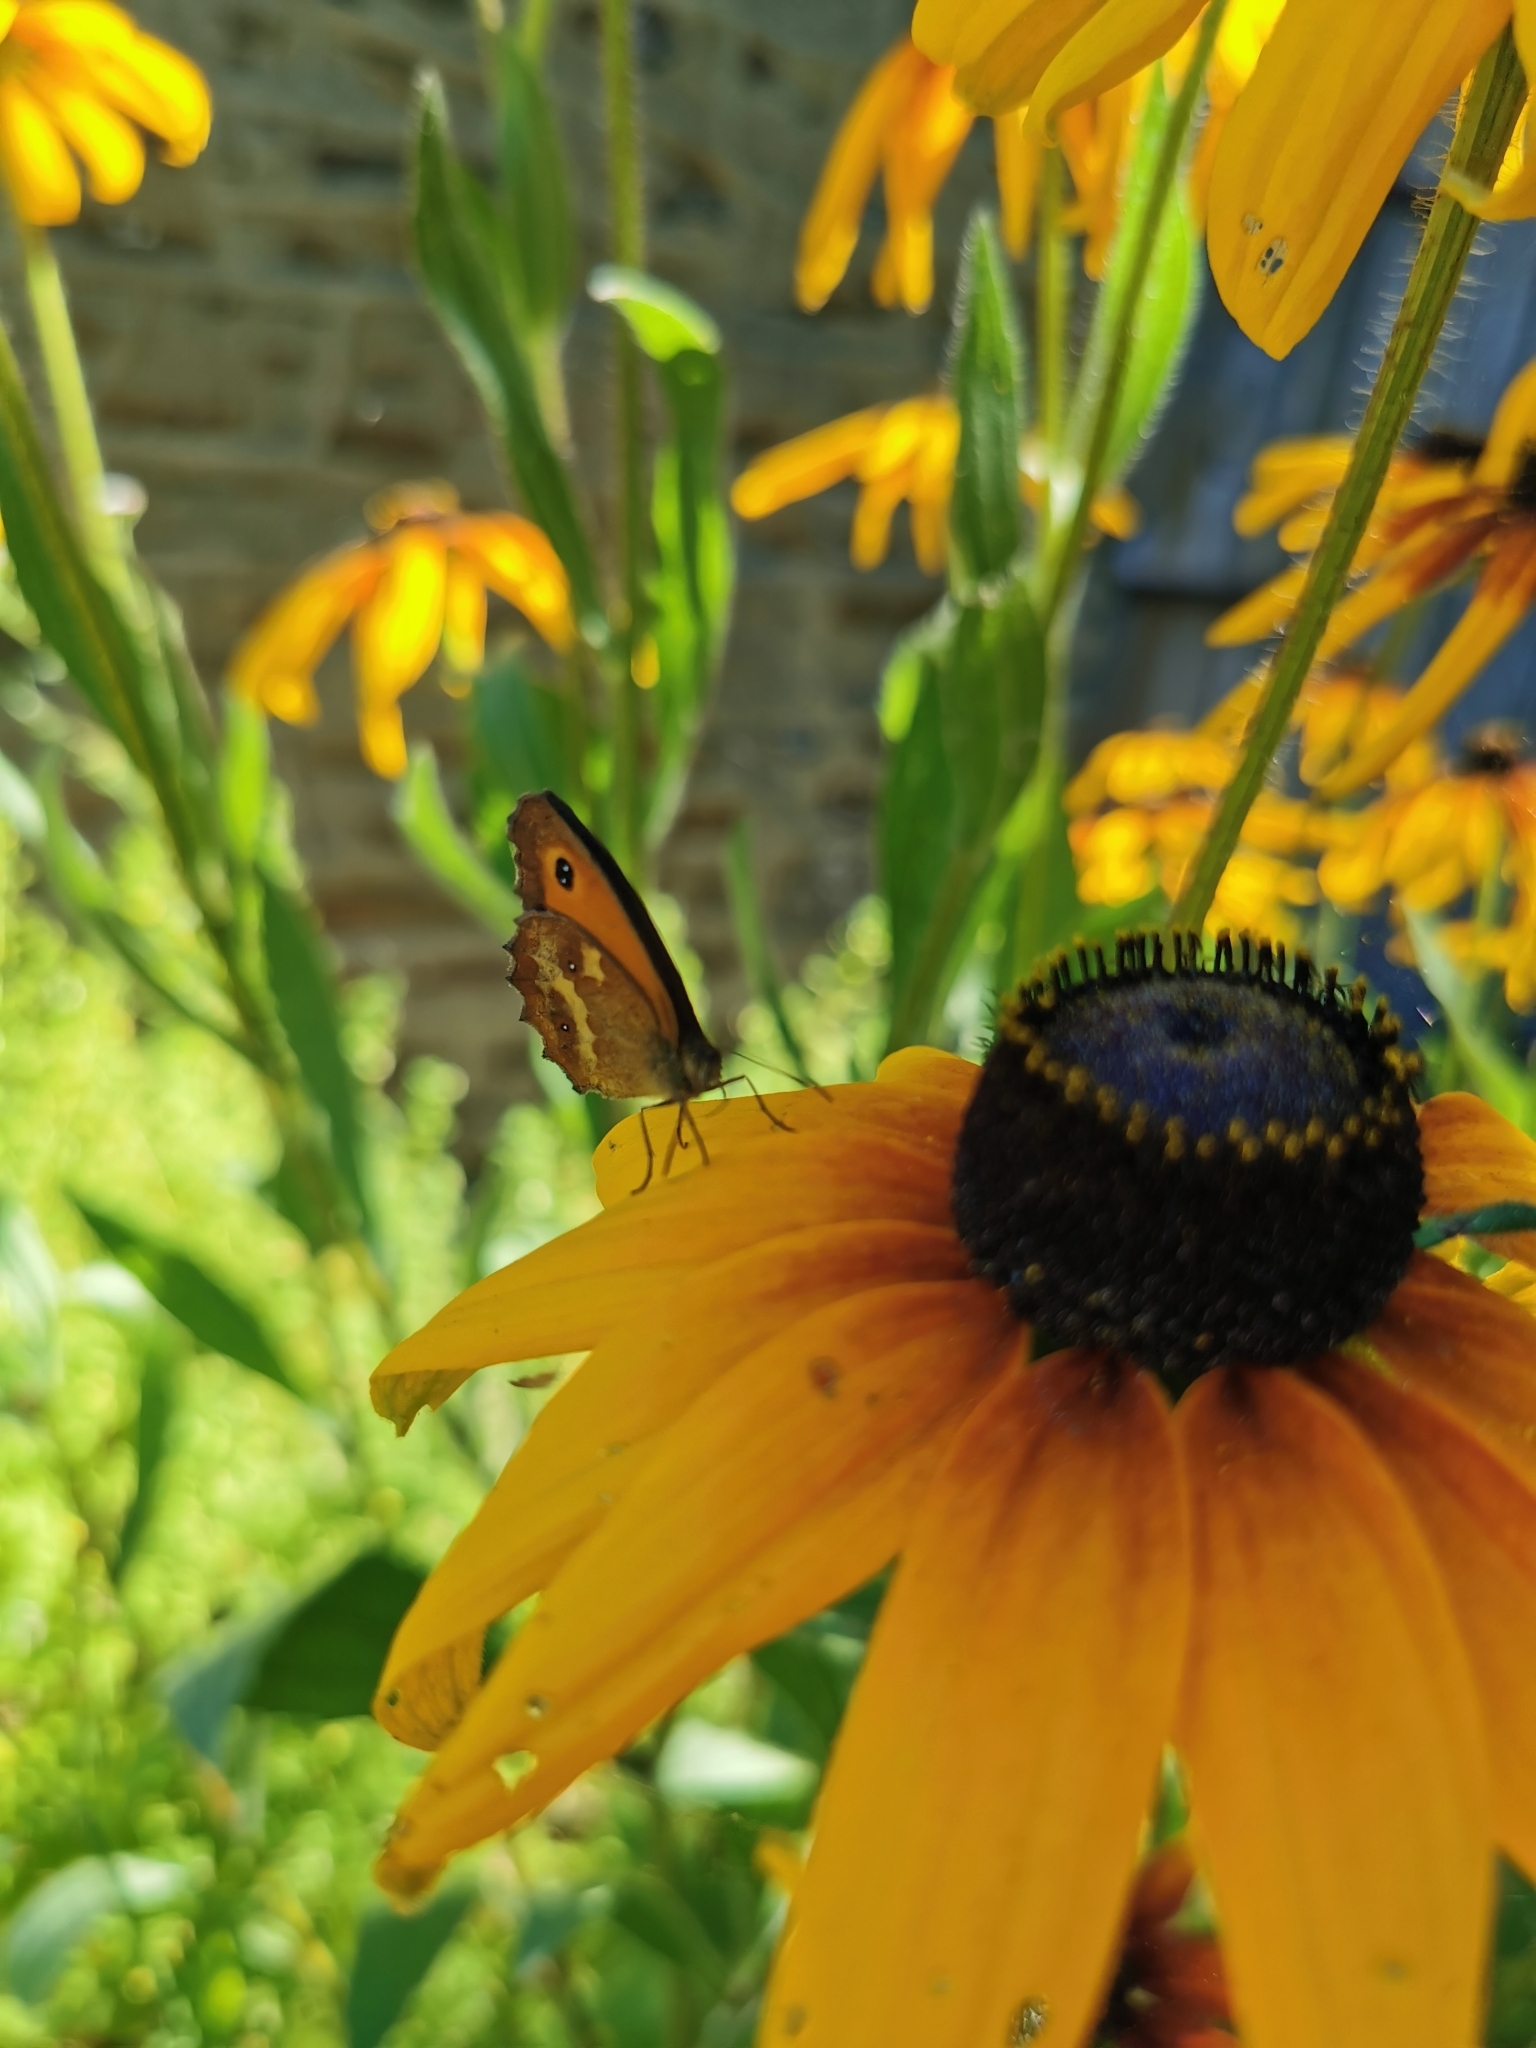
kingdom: Animalia
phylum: Arthropoda
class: Insecta
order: Lepidoptera
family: Nymphalidae
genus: Pyronia
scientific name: Pyronia tithonus
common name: Gatekeeper
